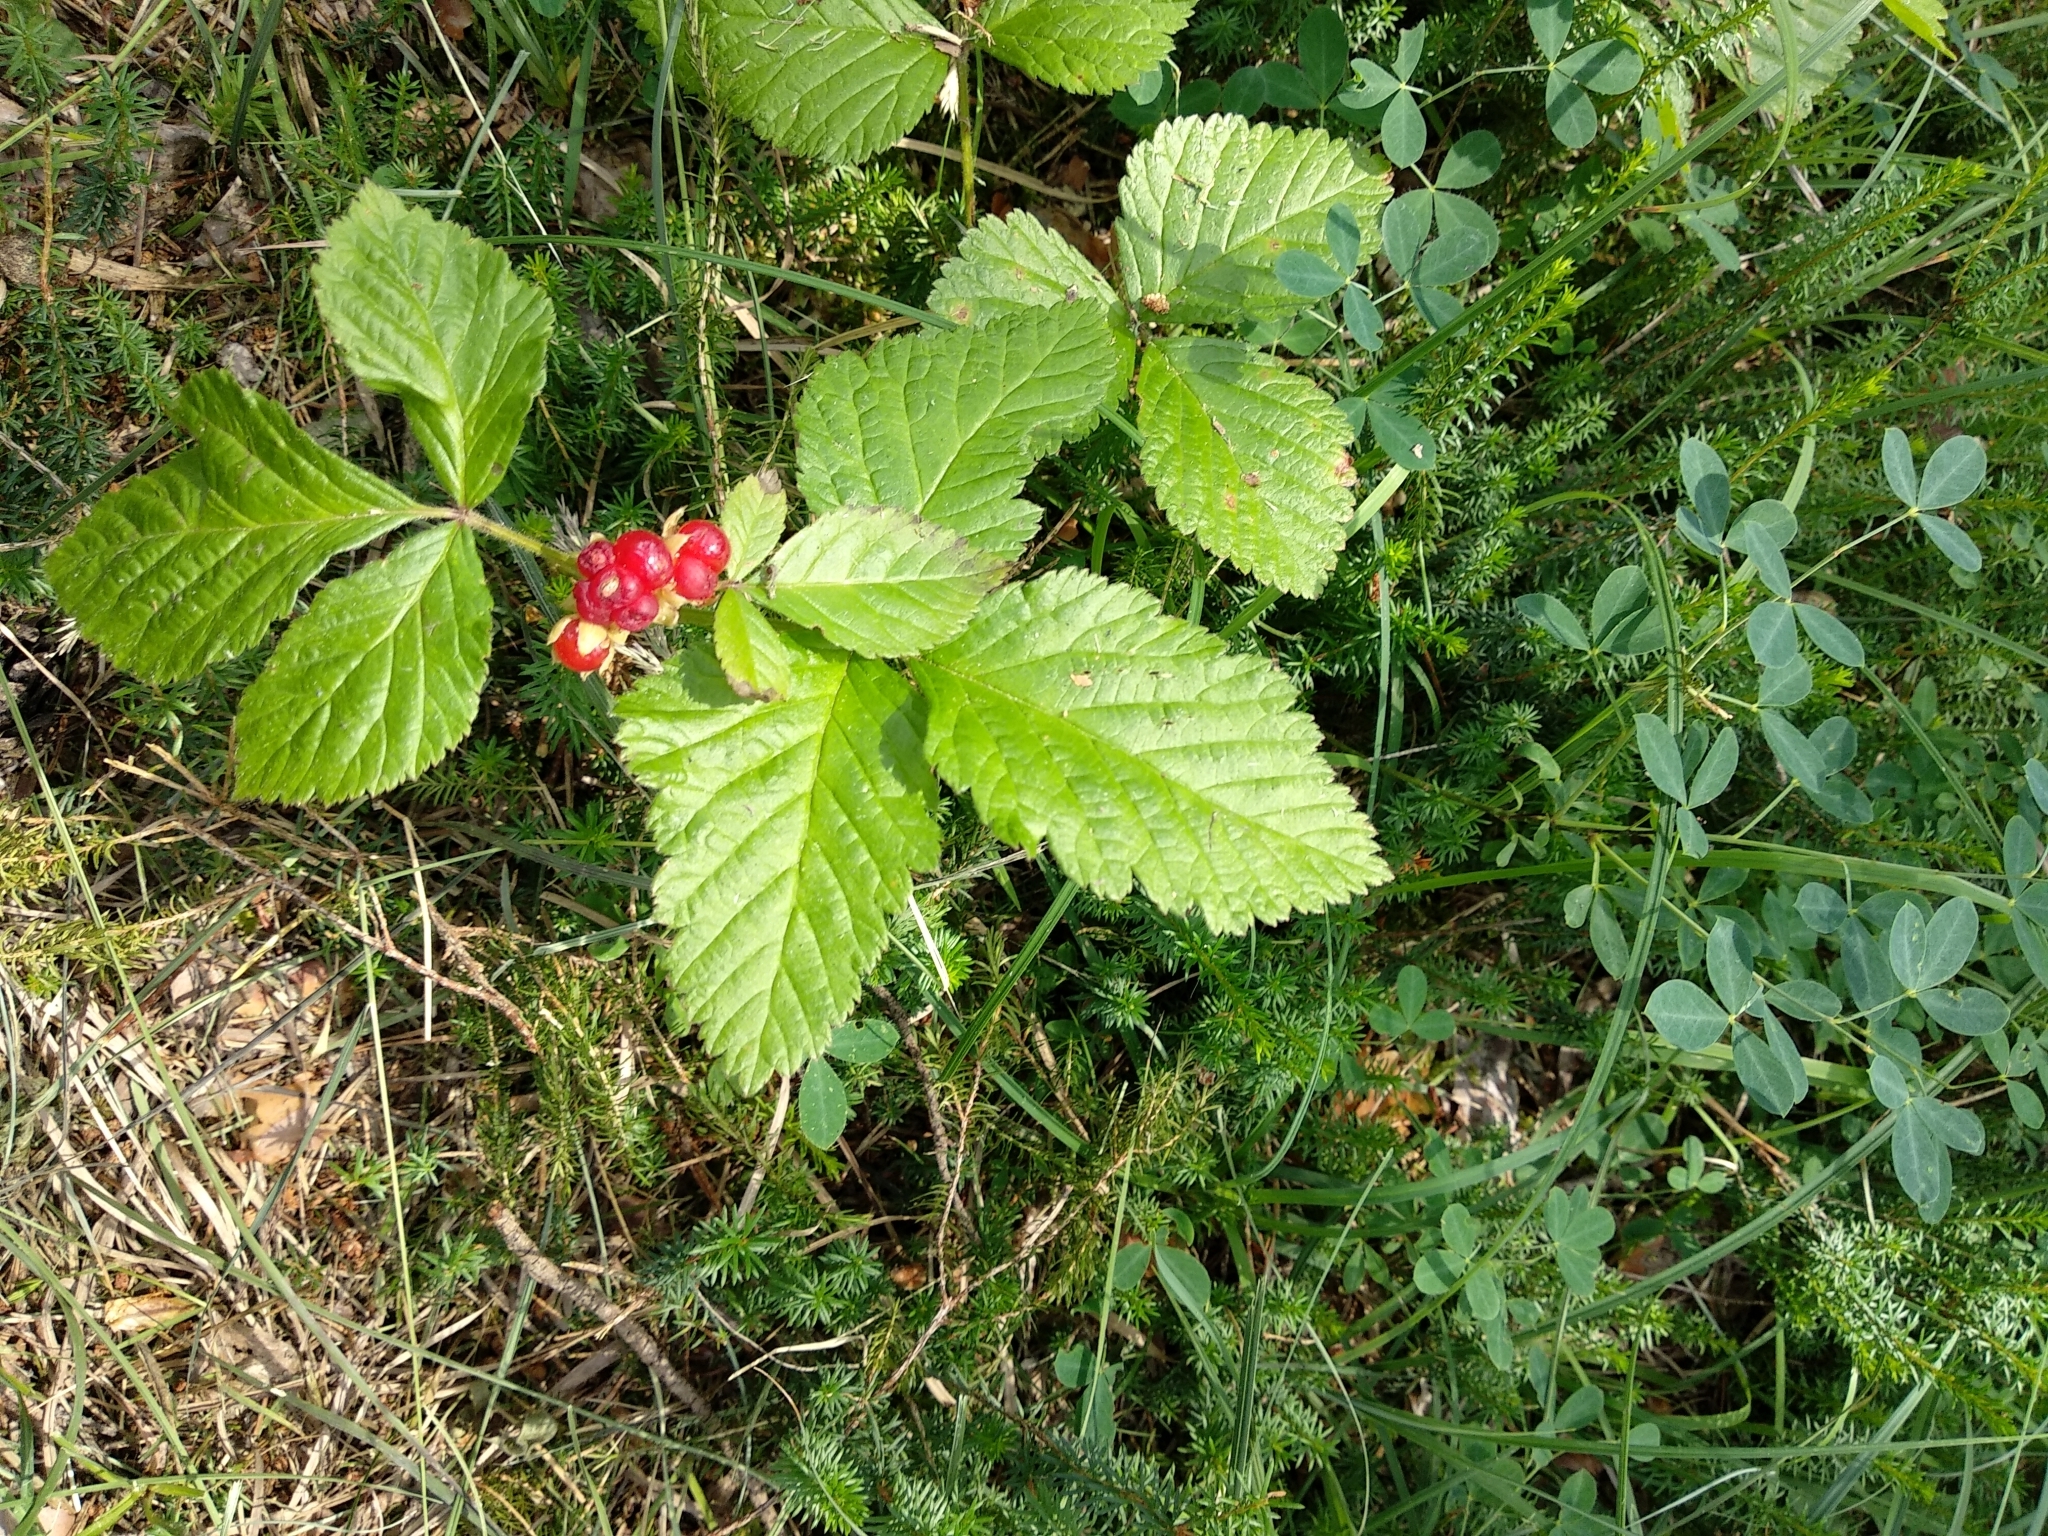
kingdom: Plantae
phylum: Tracheophyta
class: Magnoliopsida
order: Rosales
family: Rosaceae
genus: Rubus
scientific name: Rubus saxatilis
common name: Stone bramble
